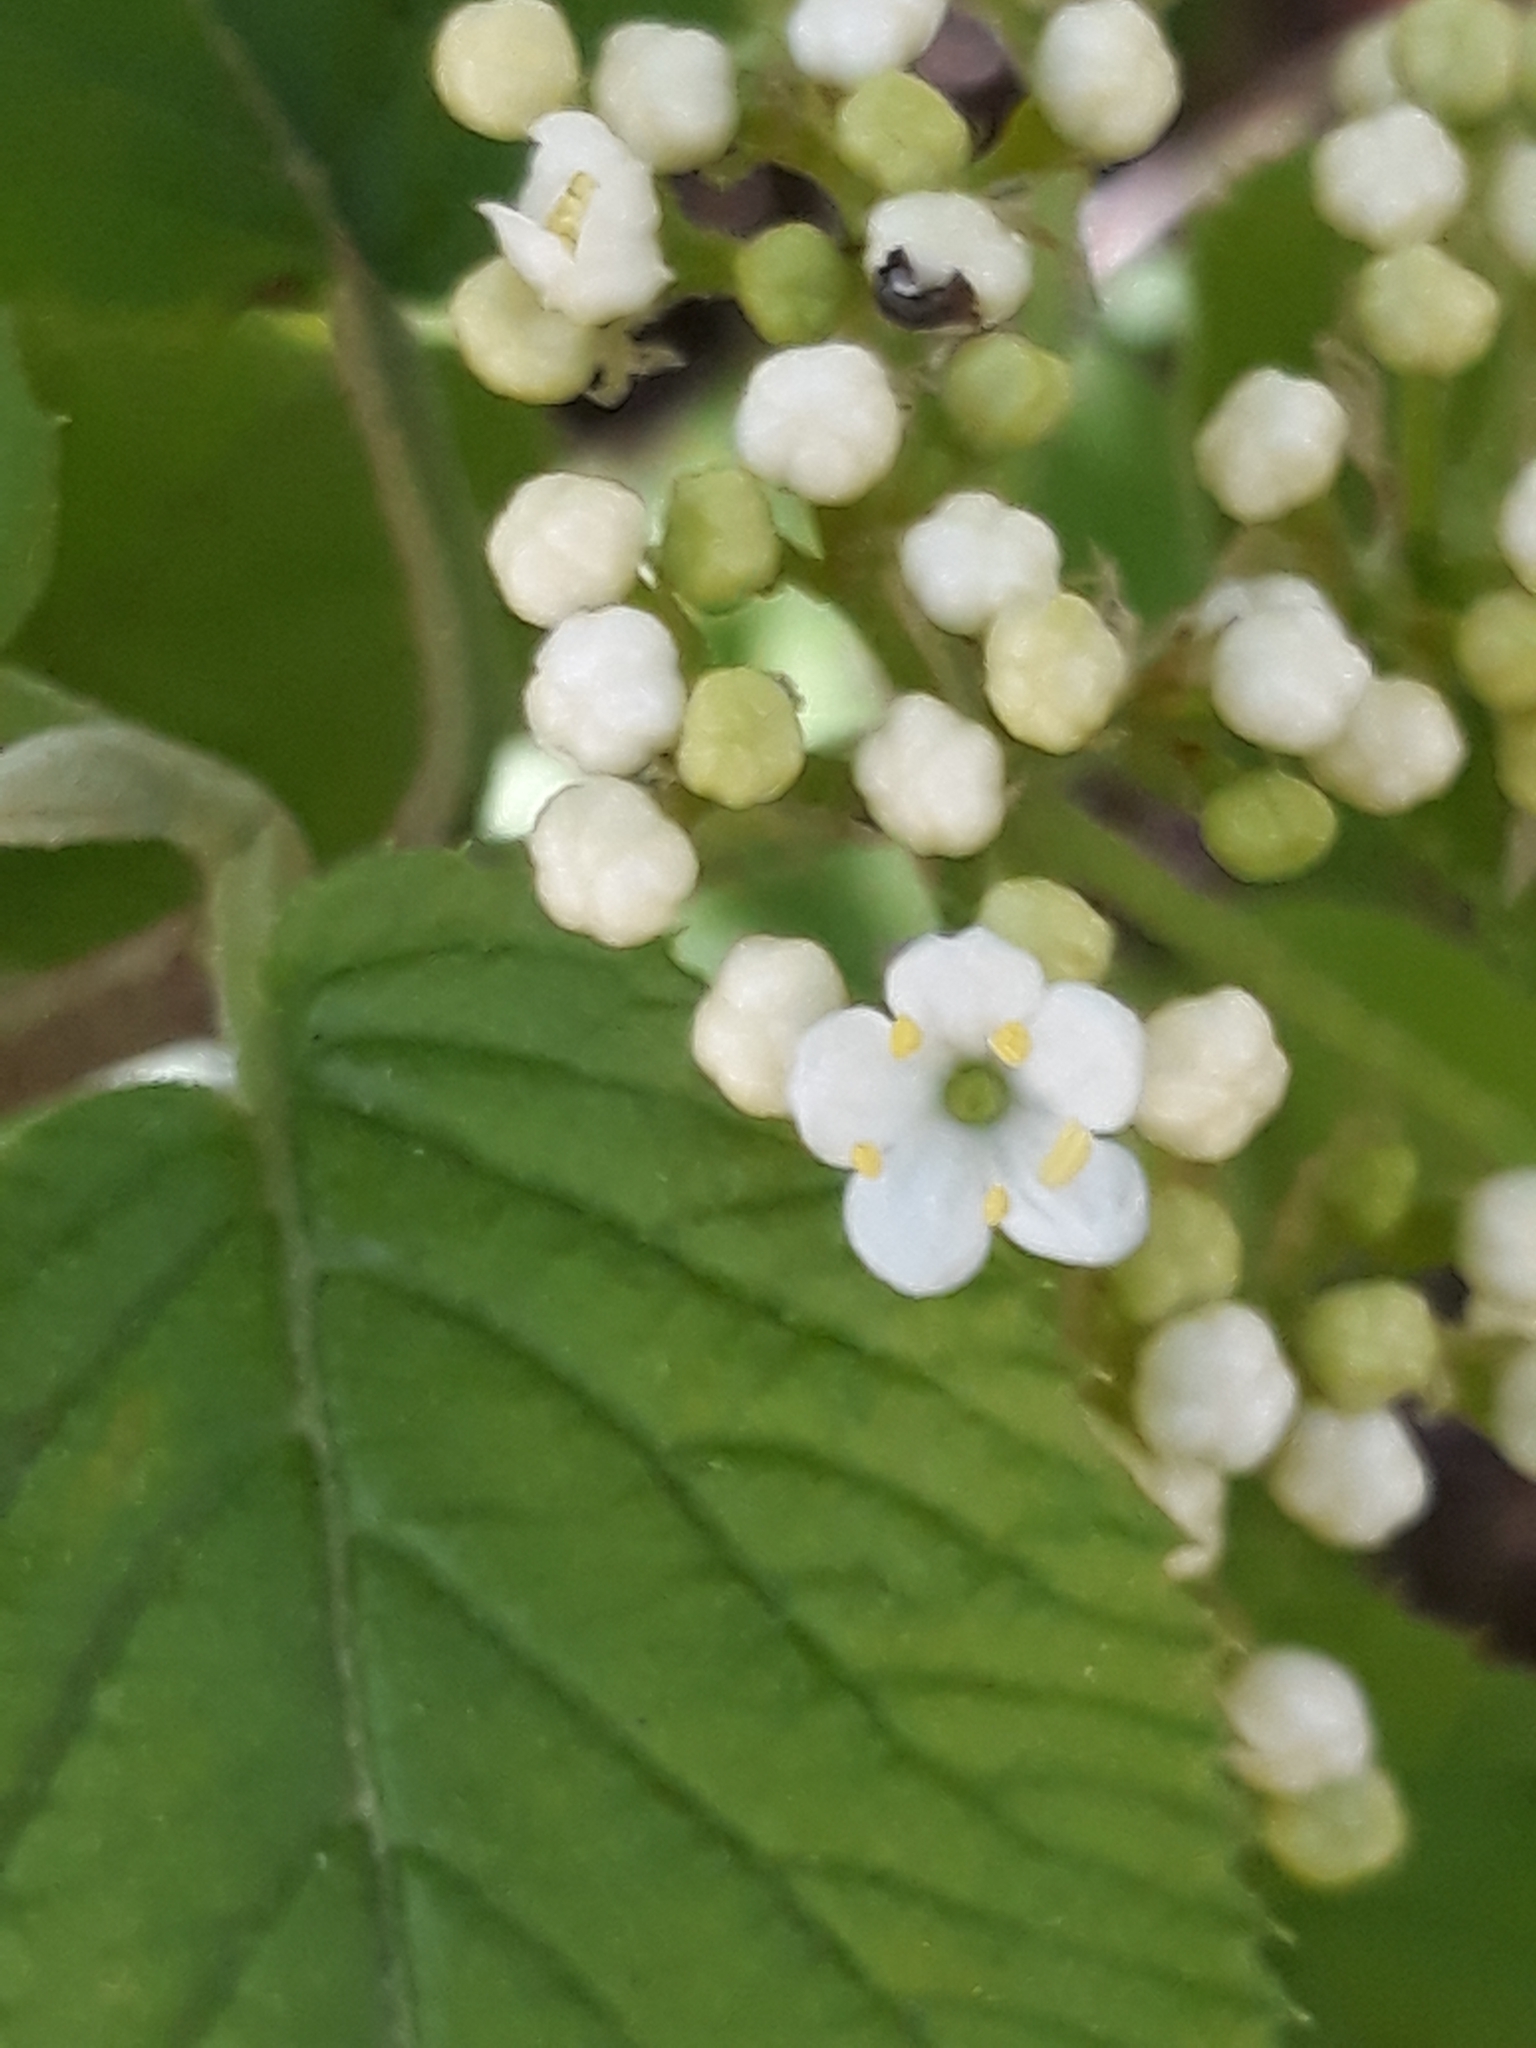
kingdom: Plantae
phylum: Tracheophyta
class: Magnoliopsida
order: Dipsacales
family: Viburnaceae
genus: Viburnum
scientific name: Viburnum lantana
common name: Wayfaring tree
